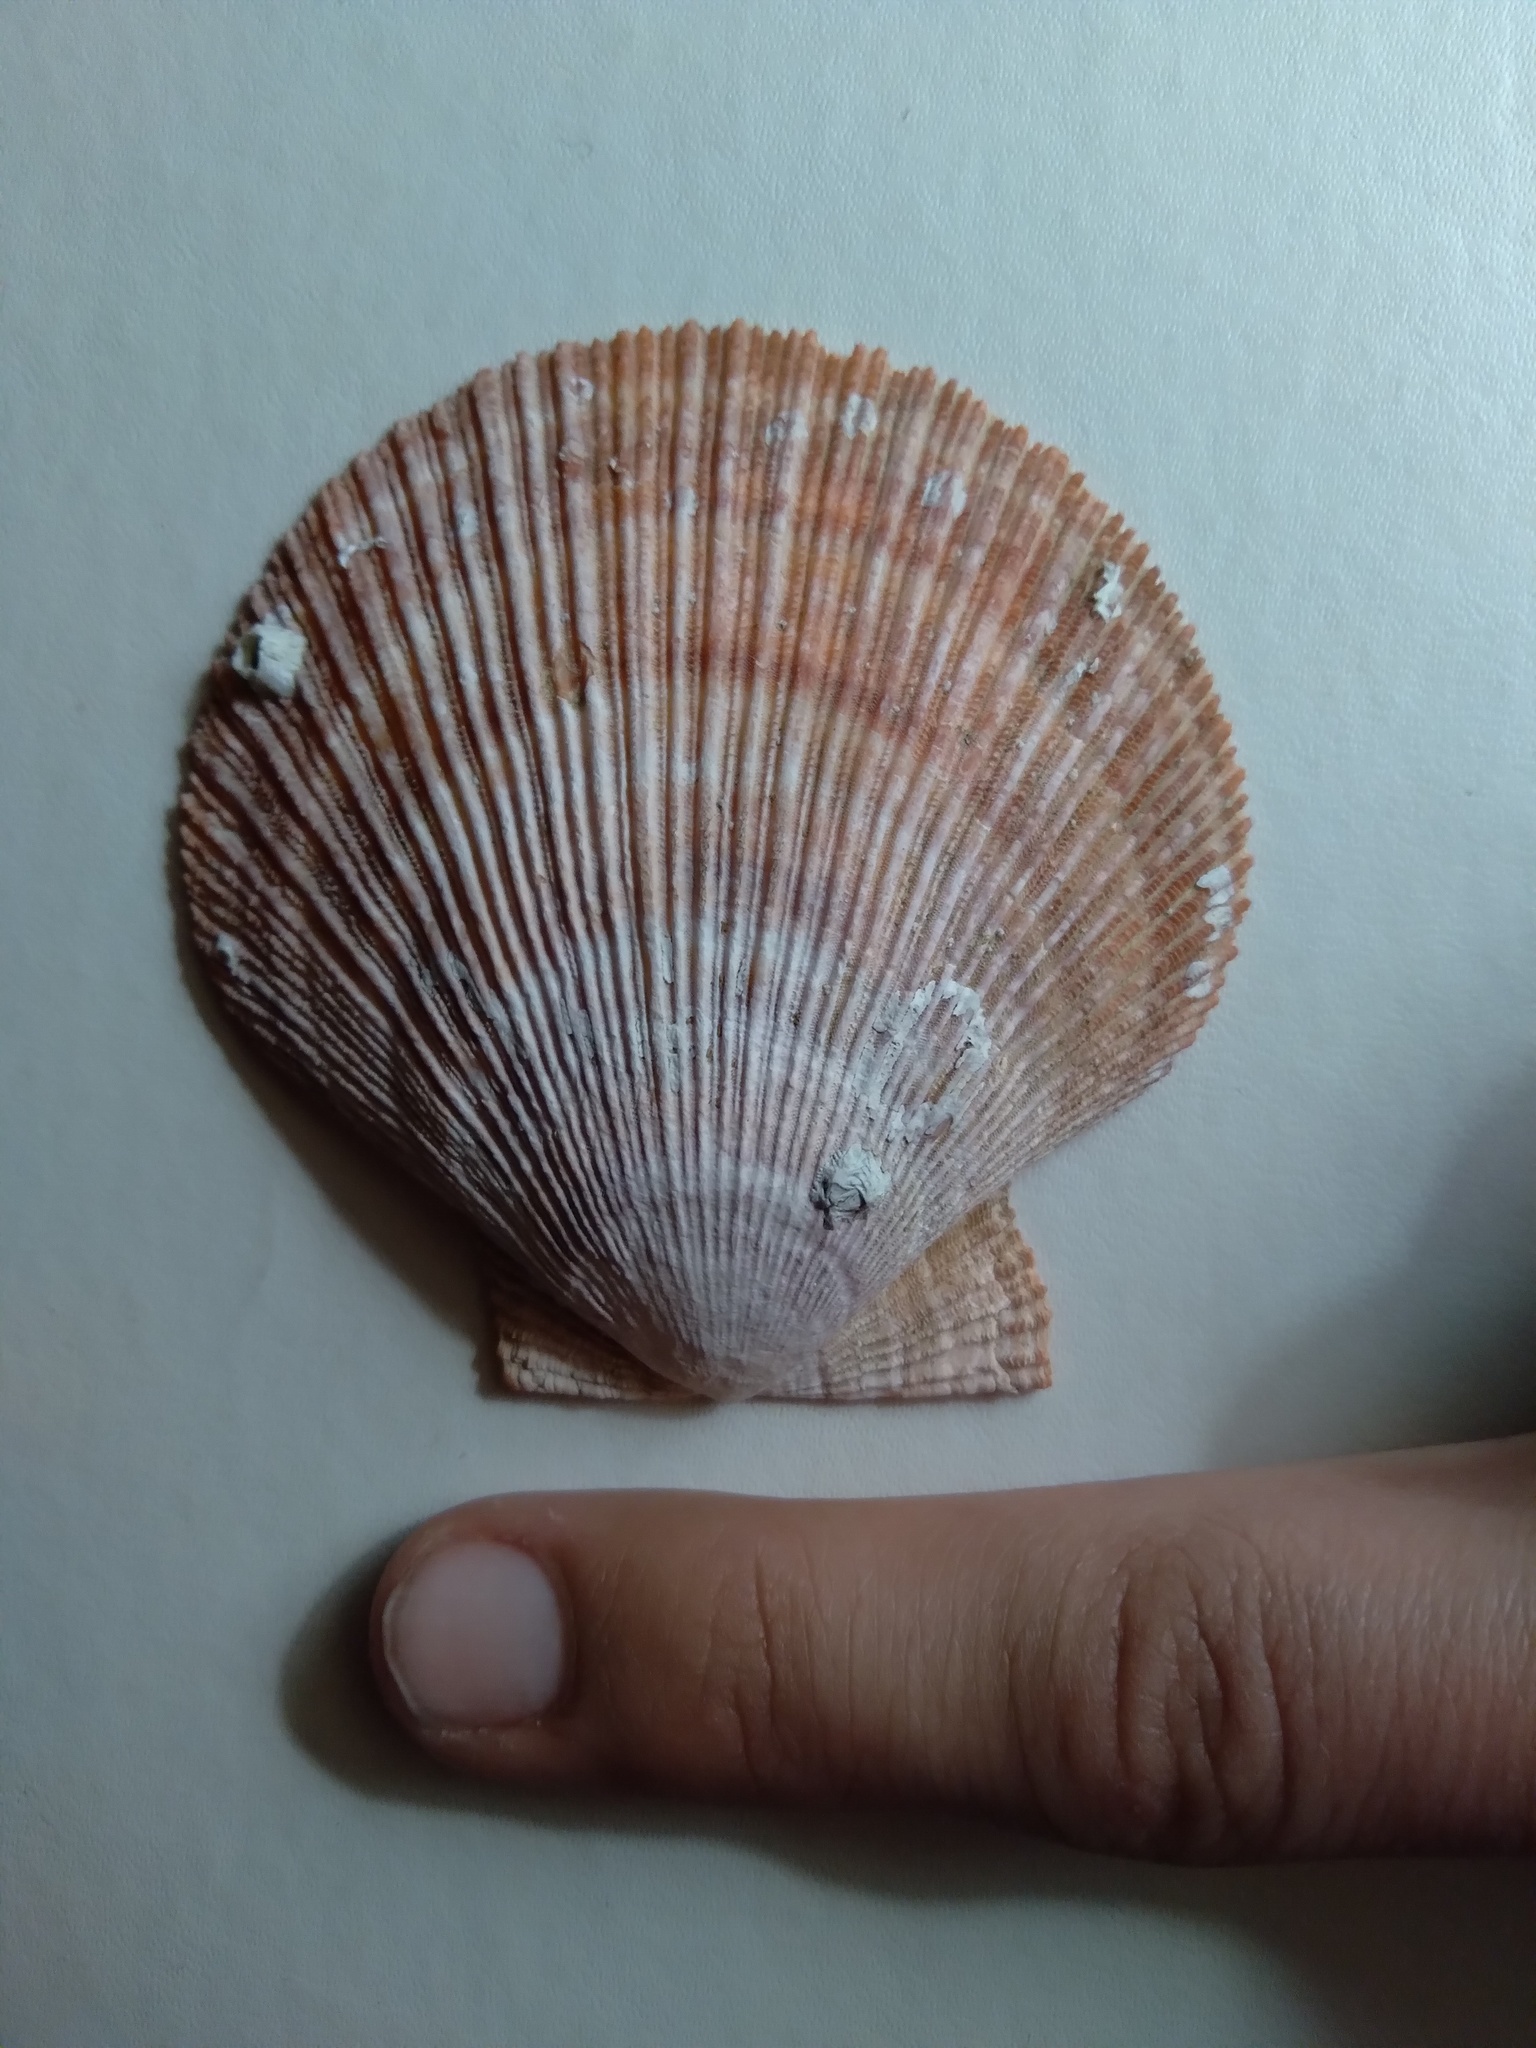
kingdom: Animalia
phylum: Mollusca
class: Bivalvia
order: Pectinida
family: Pectinidae
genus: Chlamys
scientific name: Chlamys islandica
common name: Iceland scallop
